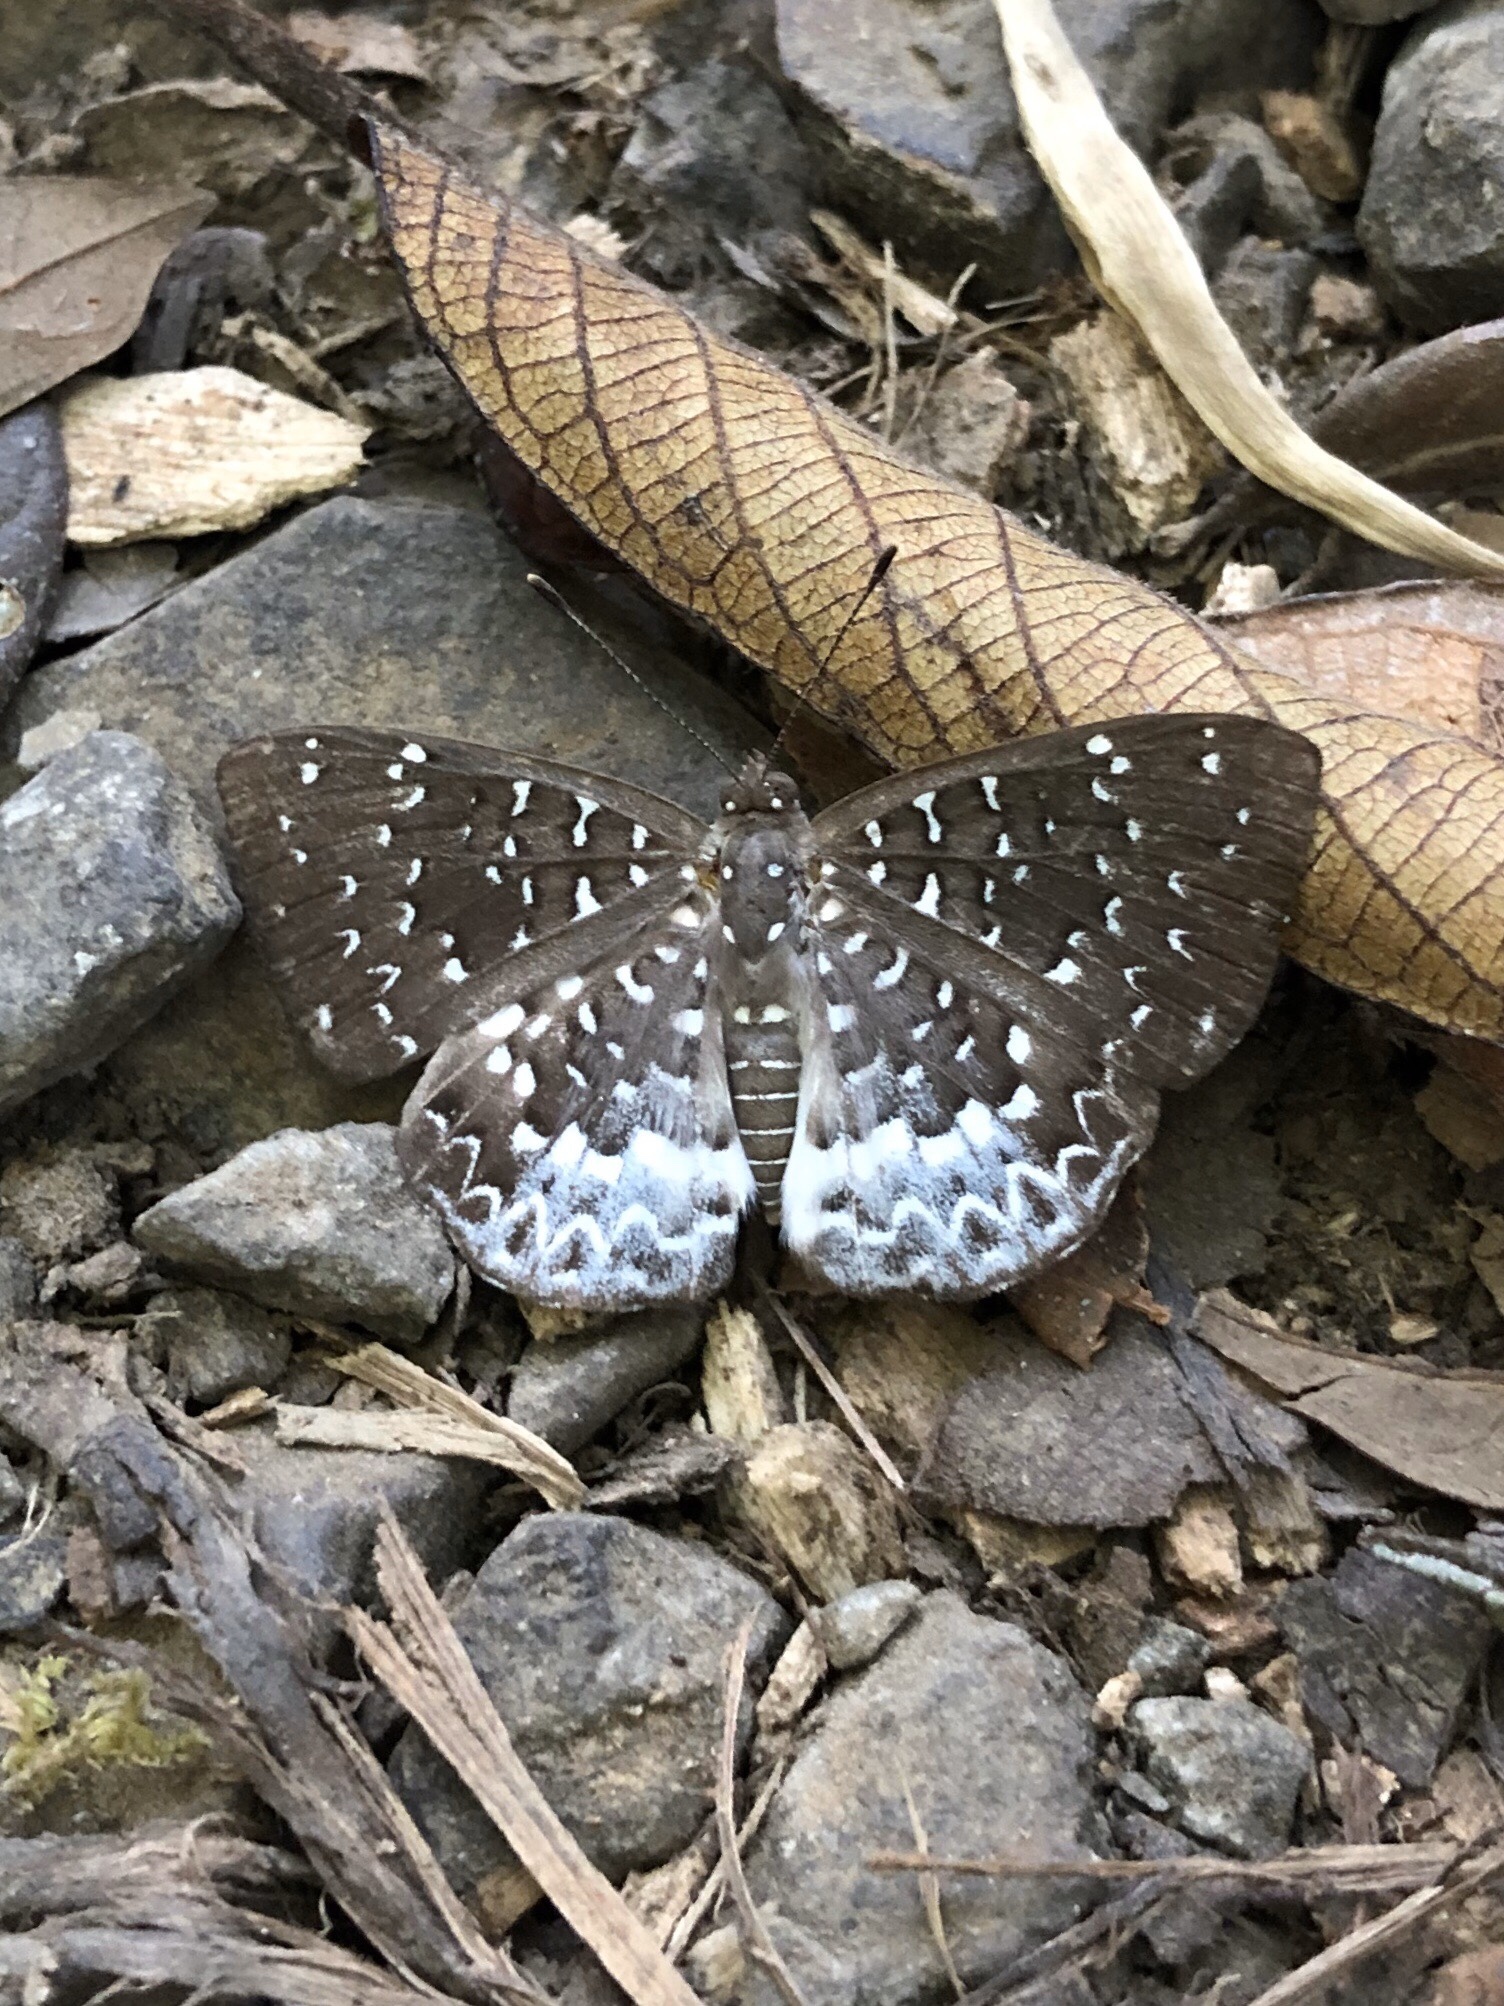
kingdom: Animalia
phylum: Arthropoda
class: Insecta
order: Diptera
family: Ephydridae
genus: Napaea
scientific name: Napaea beltiana
